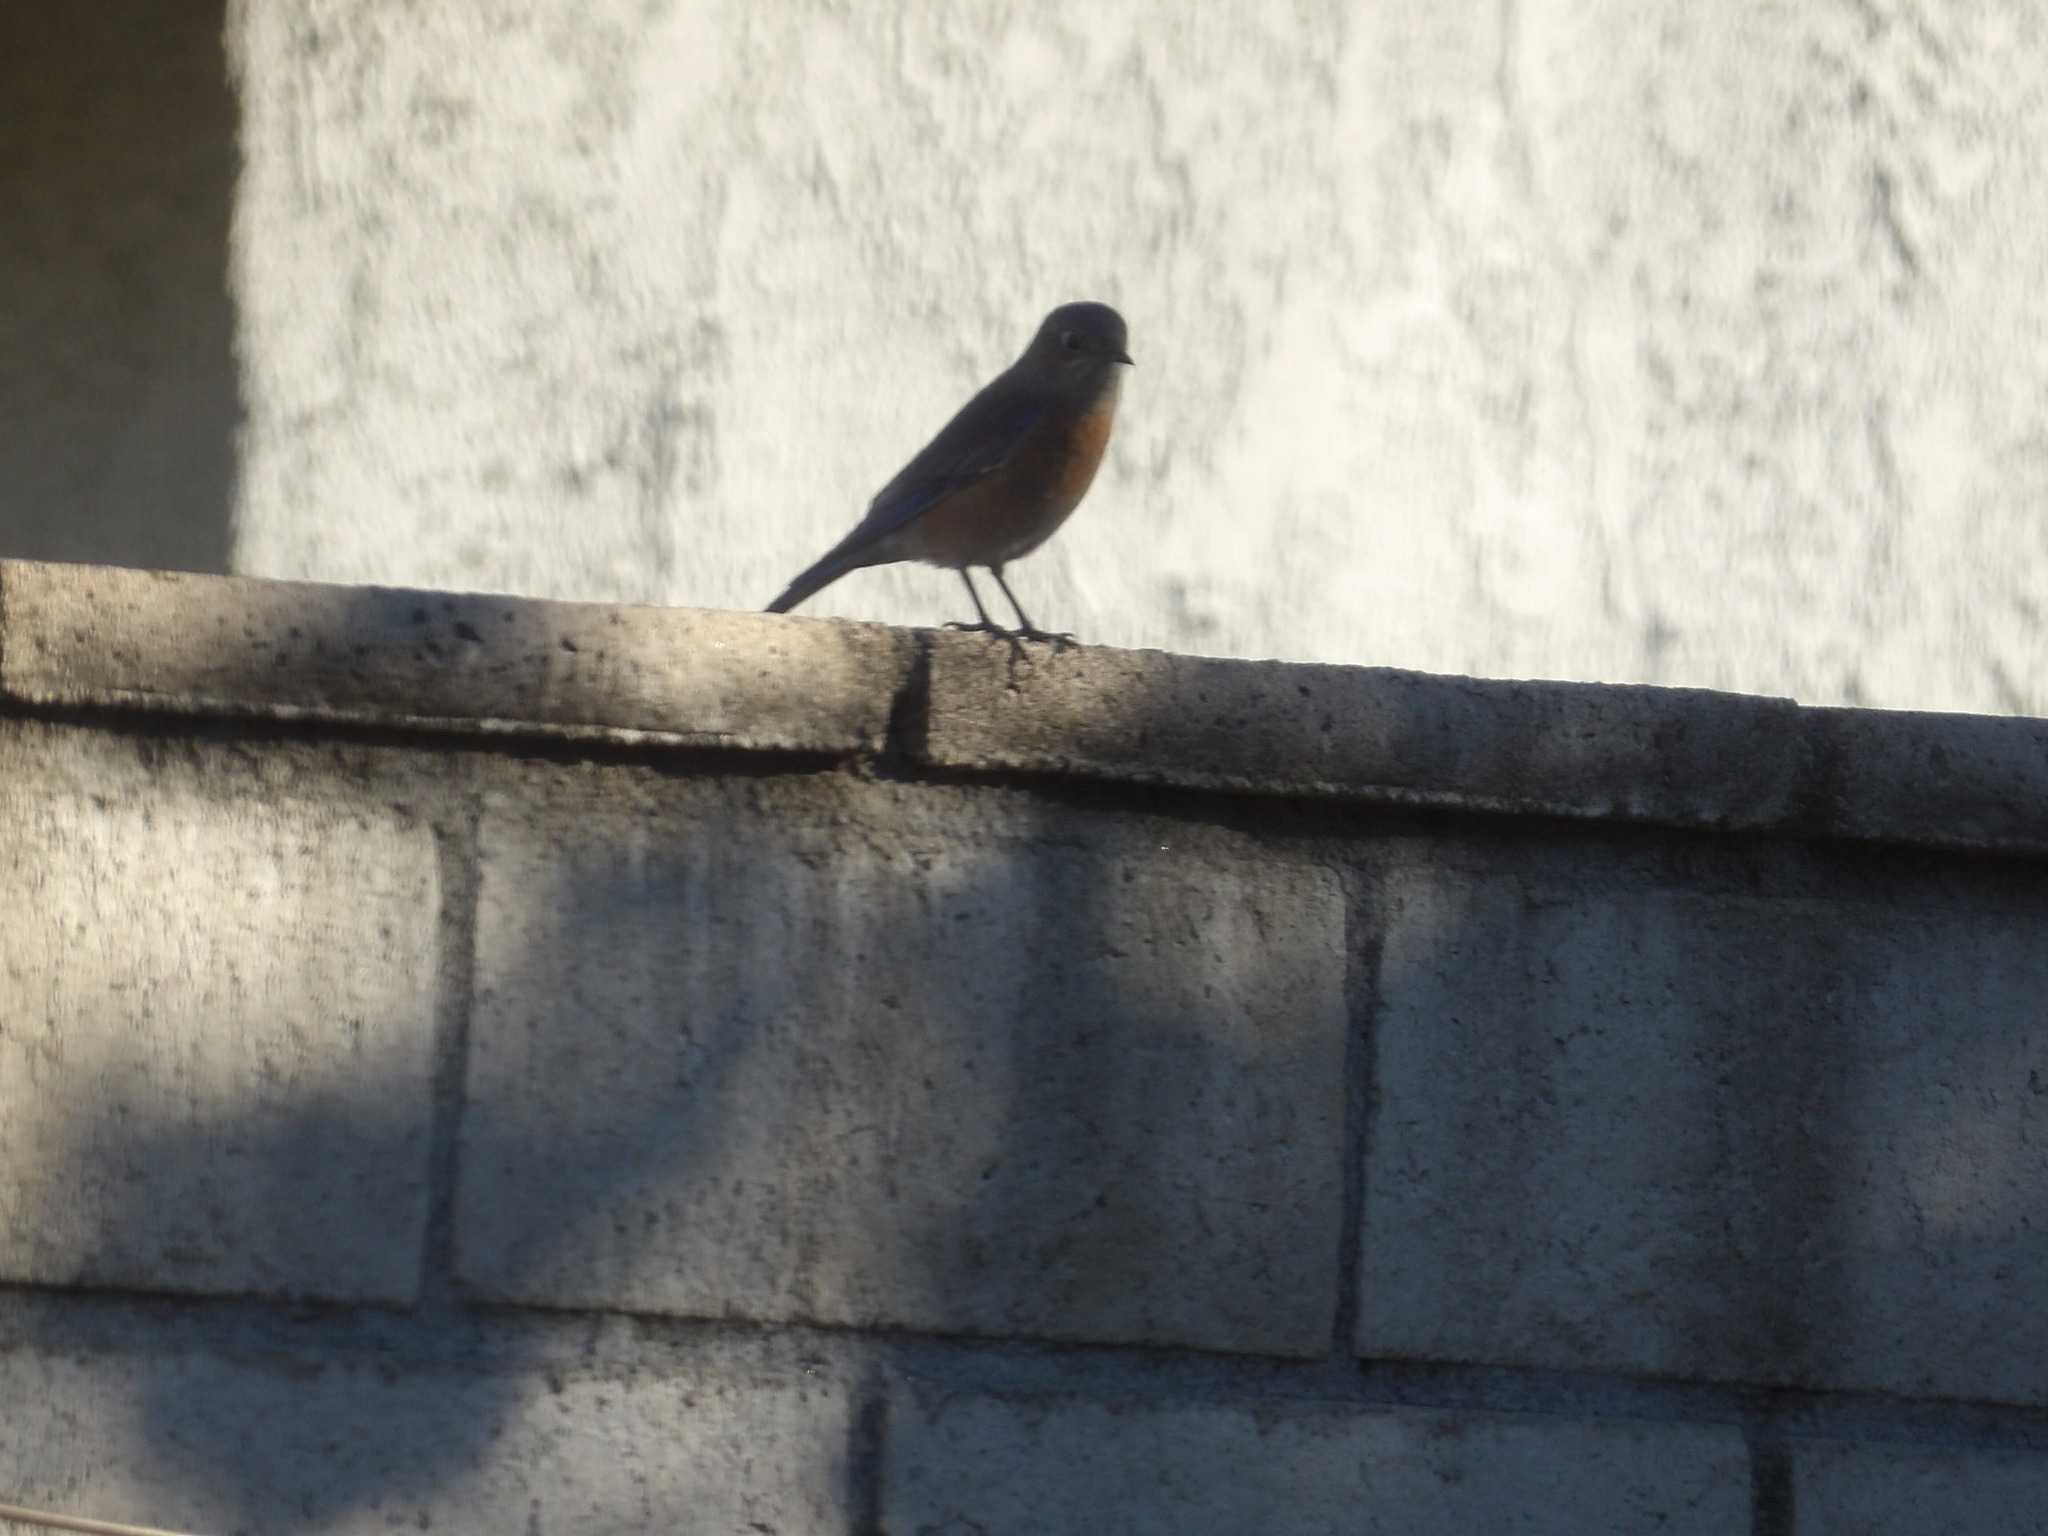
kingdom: Animalia
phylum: Chordata
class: Aves
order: Passeriformes
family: Turdidae
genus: Sialia
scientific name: Sialia mexicana
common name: Western bluebird
